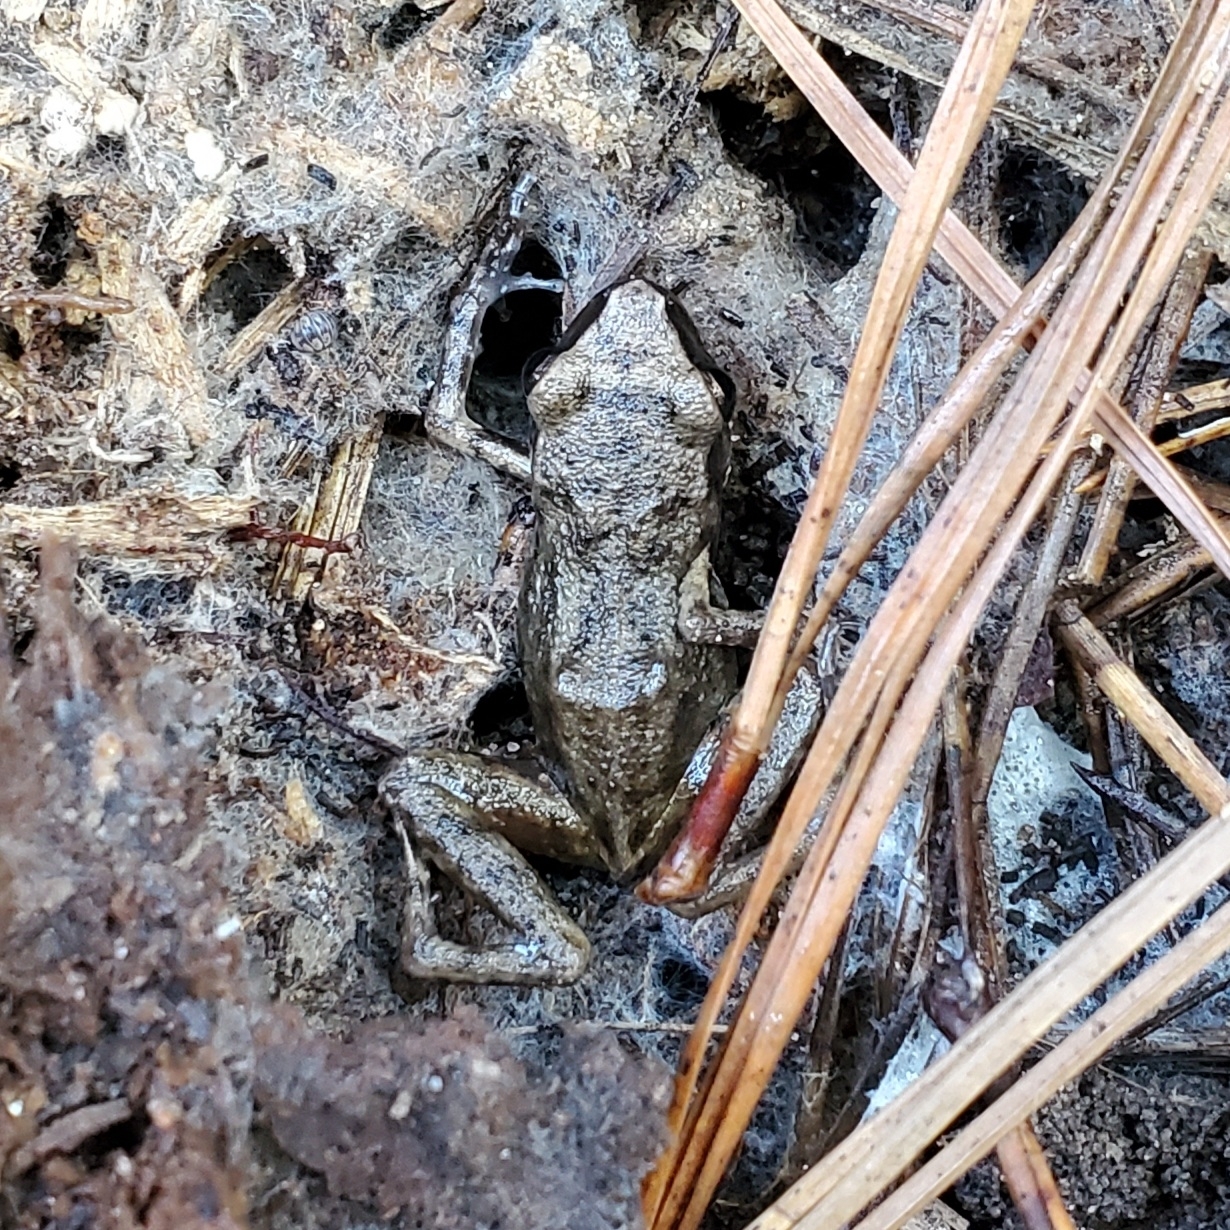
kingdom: Animalia
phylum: Chordata
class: Amphibia
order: Anura
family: Eleutherodactylidae
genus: Eleutherodactylus
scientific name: Eleutherodactylus campi
